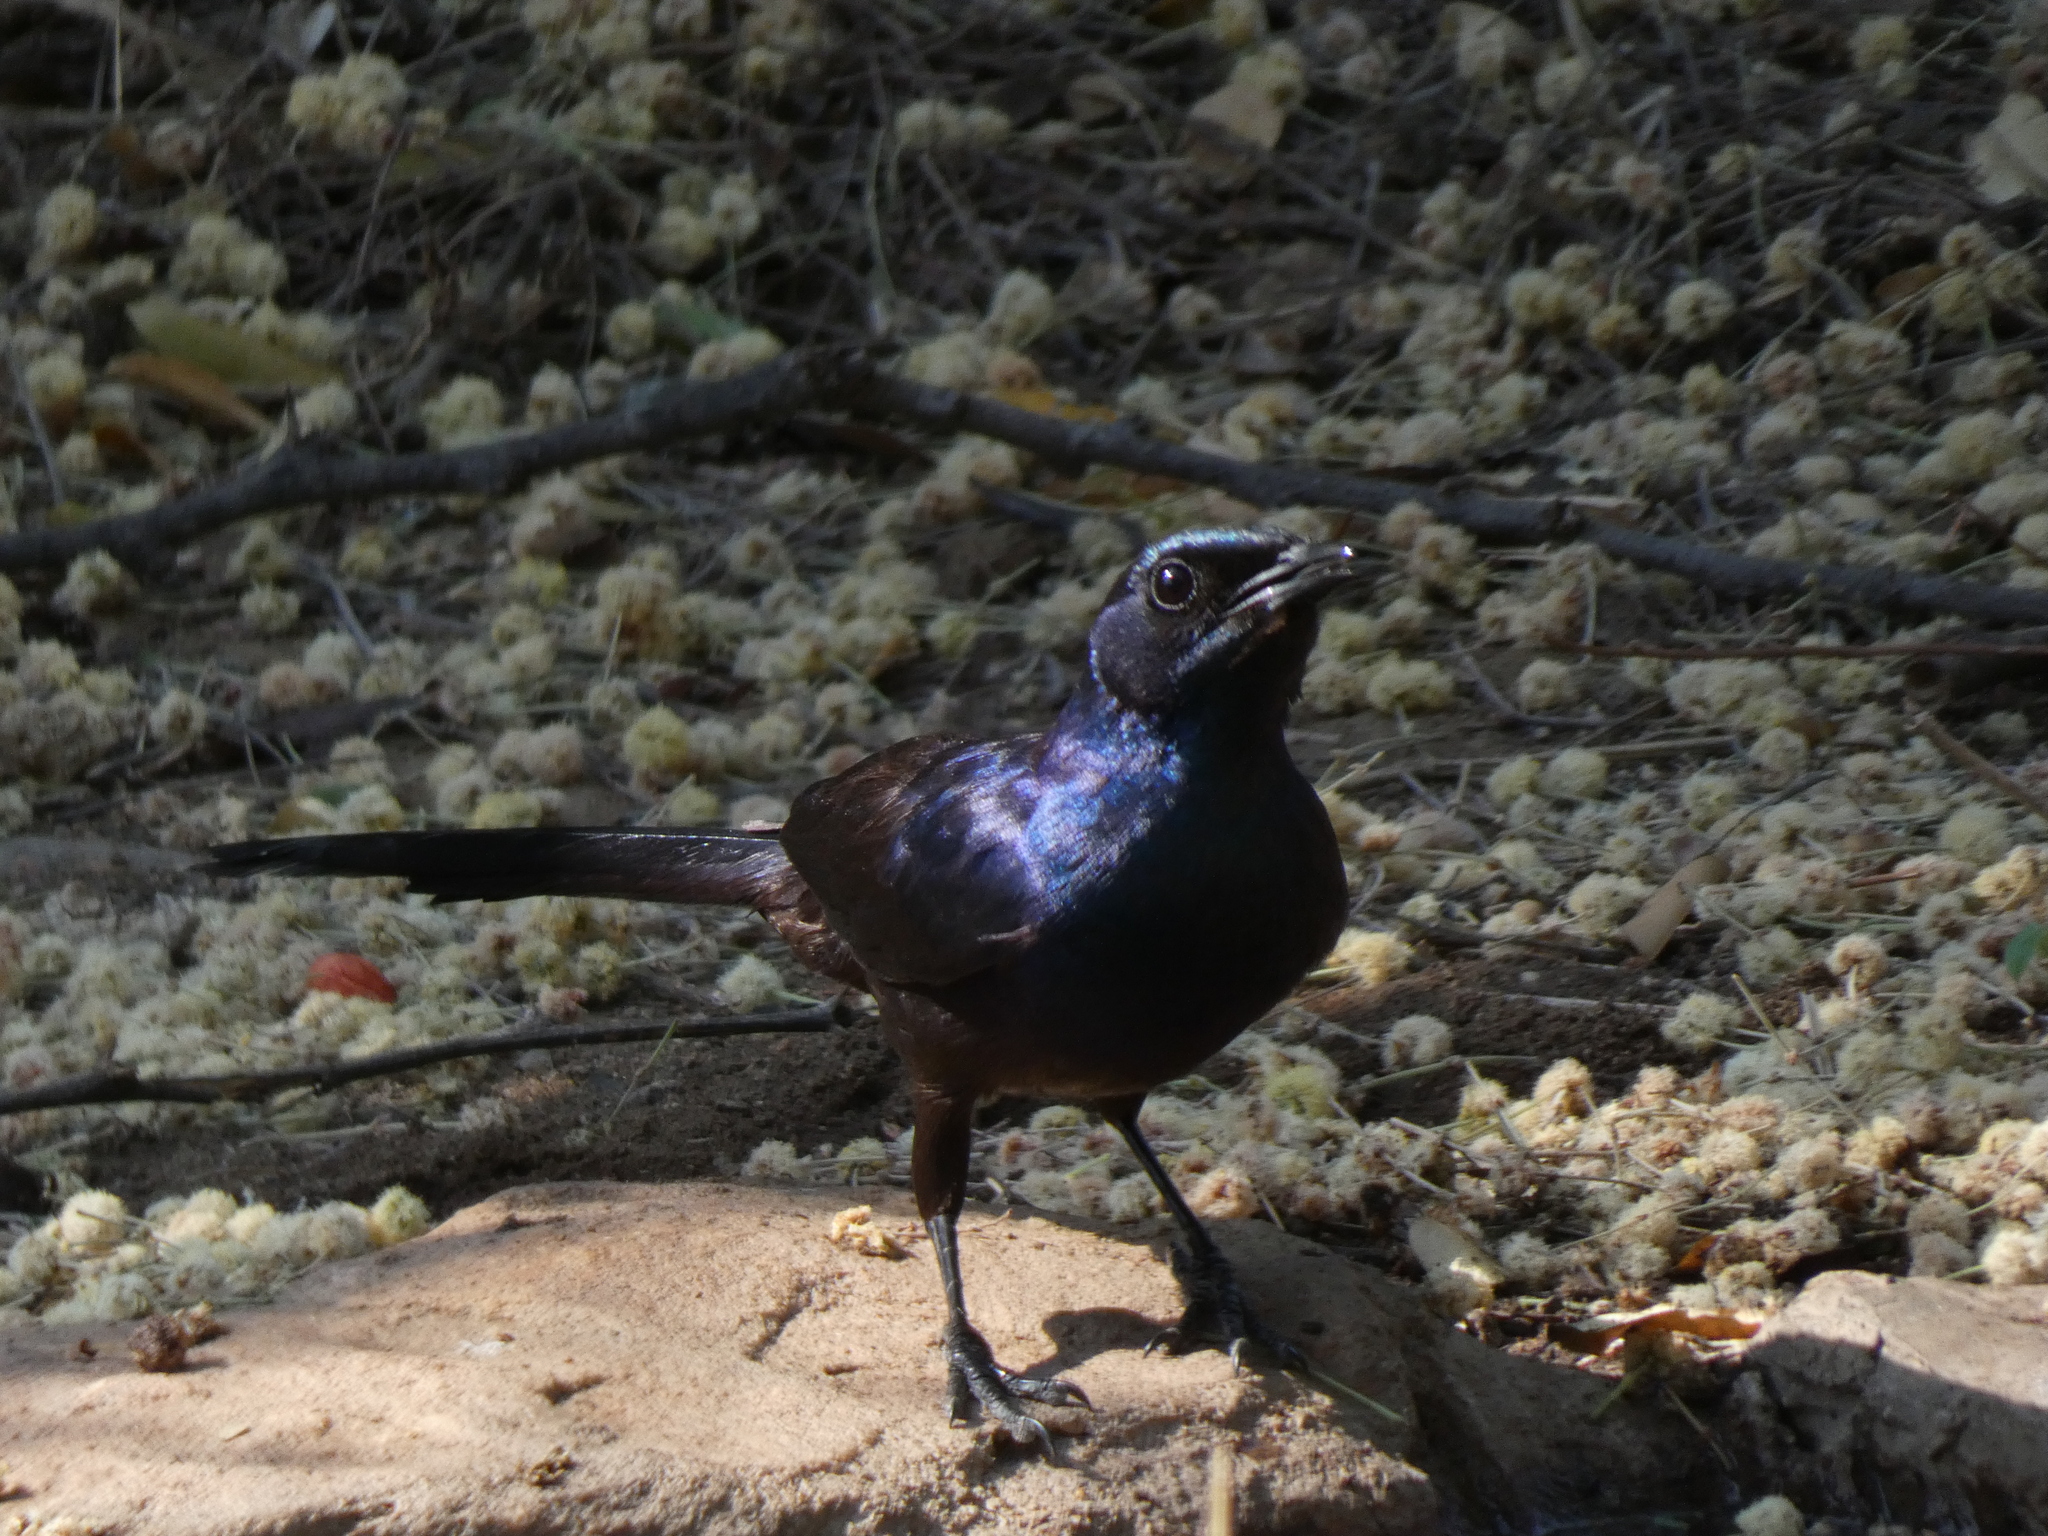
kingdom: Animalia
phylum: Chordata
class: Aves
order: Passeriformes
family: Sturnidae
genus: Lamprotornis
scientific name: Lamprotornis mevesii
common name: Meves's starling
